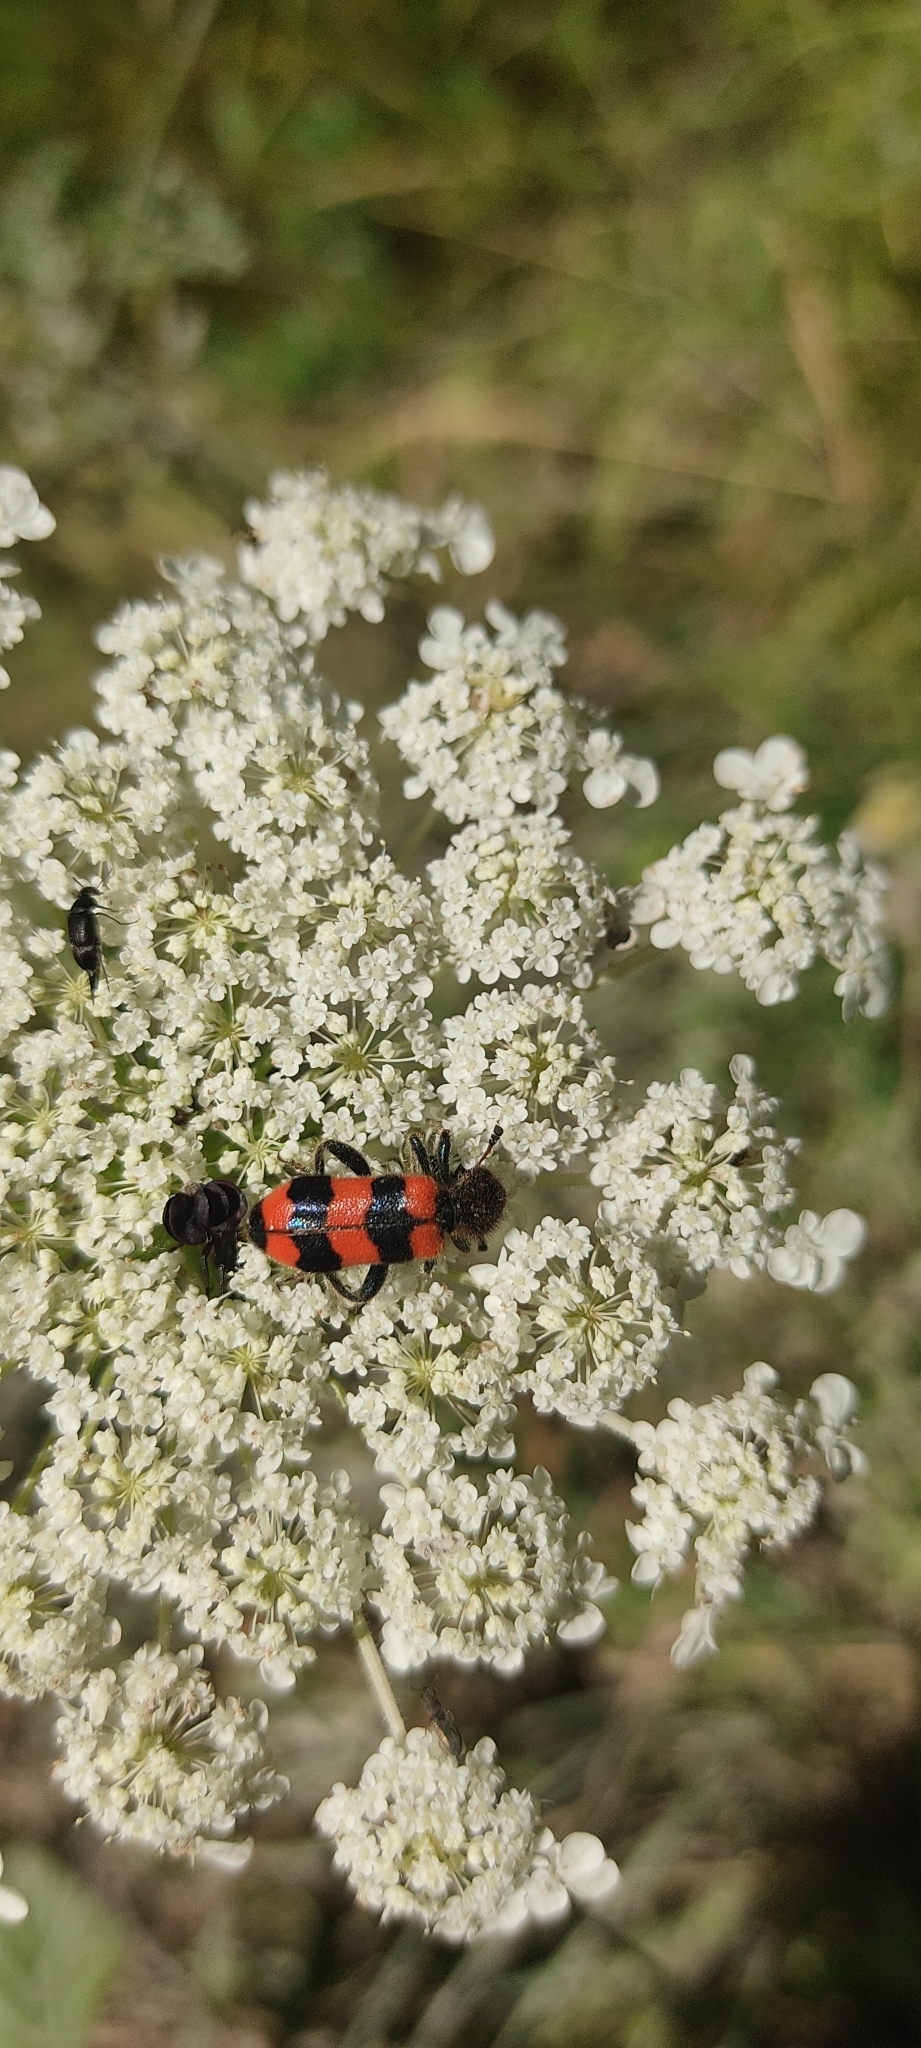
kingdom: Animalia
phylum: Arthropoda
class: Insecta
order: Coleoptera
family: Cleridae
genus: Trichodes
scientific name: Trichodes apiarius
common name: Bee-eating beetle
